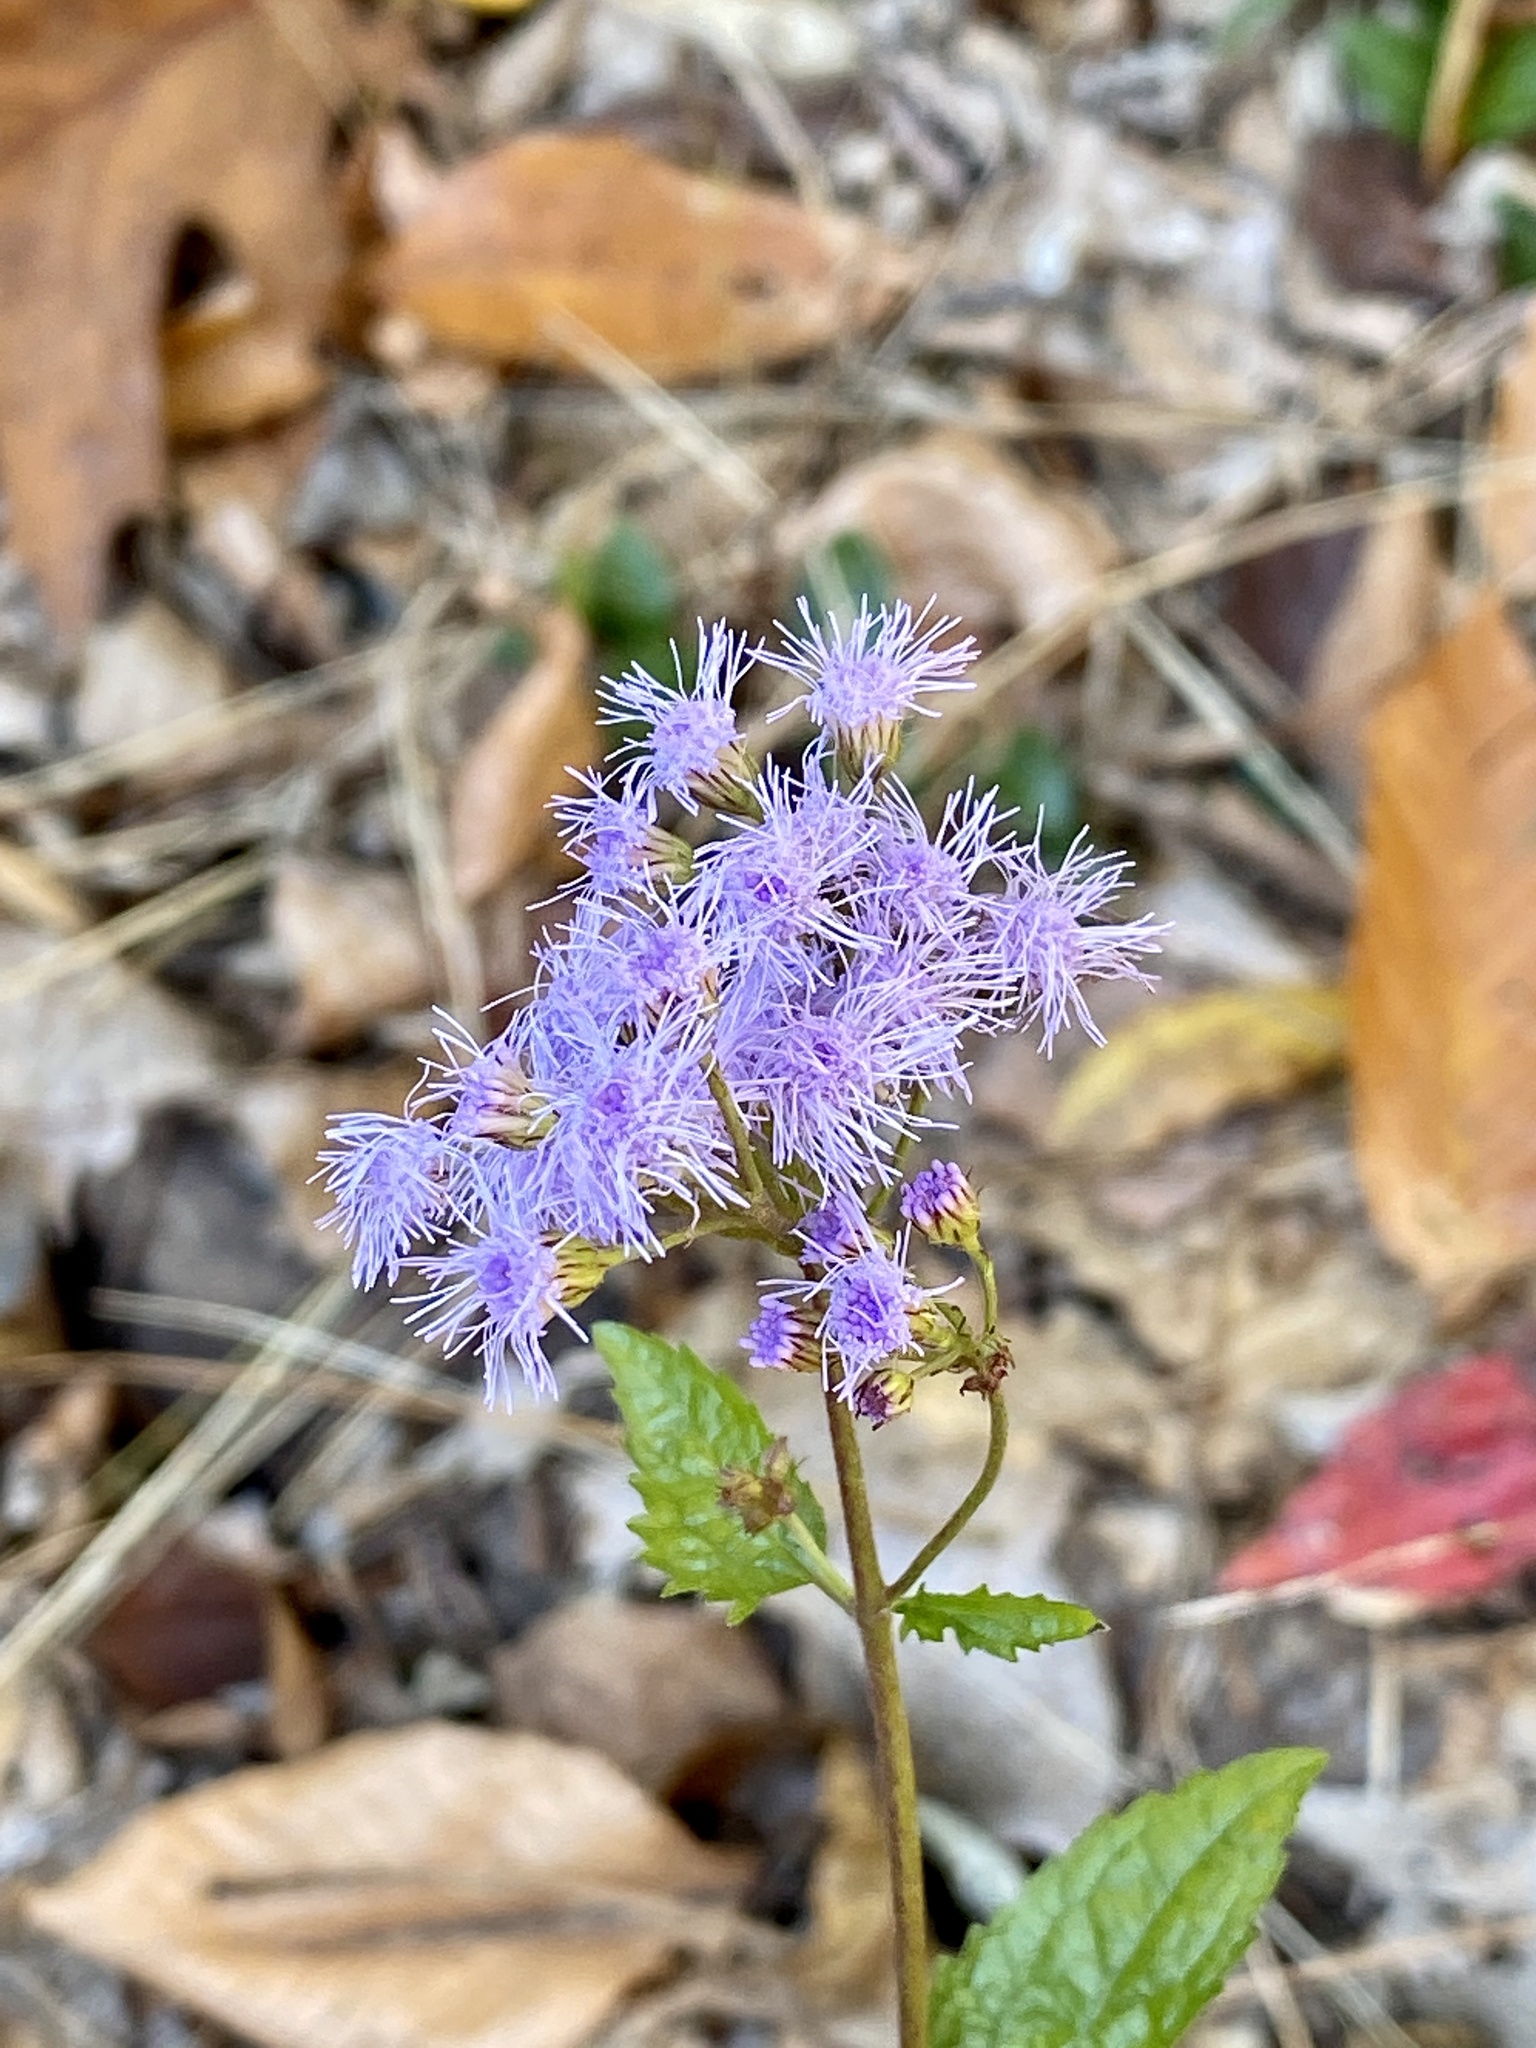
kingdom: Plantae
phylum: Tracheophyta
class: Magnoliopsida
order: Asterales
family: Asteraceae
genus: Conoclinium
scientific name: Conoclinium coelestinum
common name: Blue mistflower
